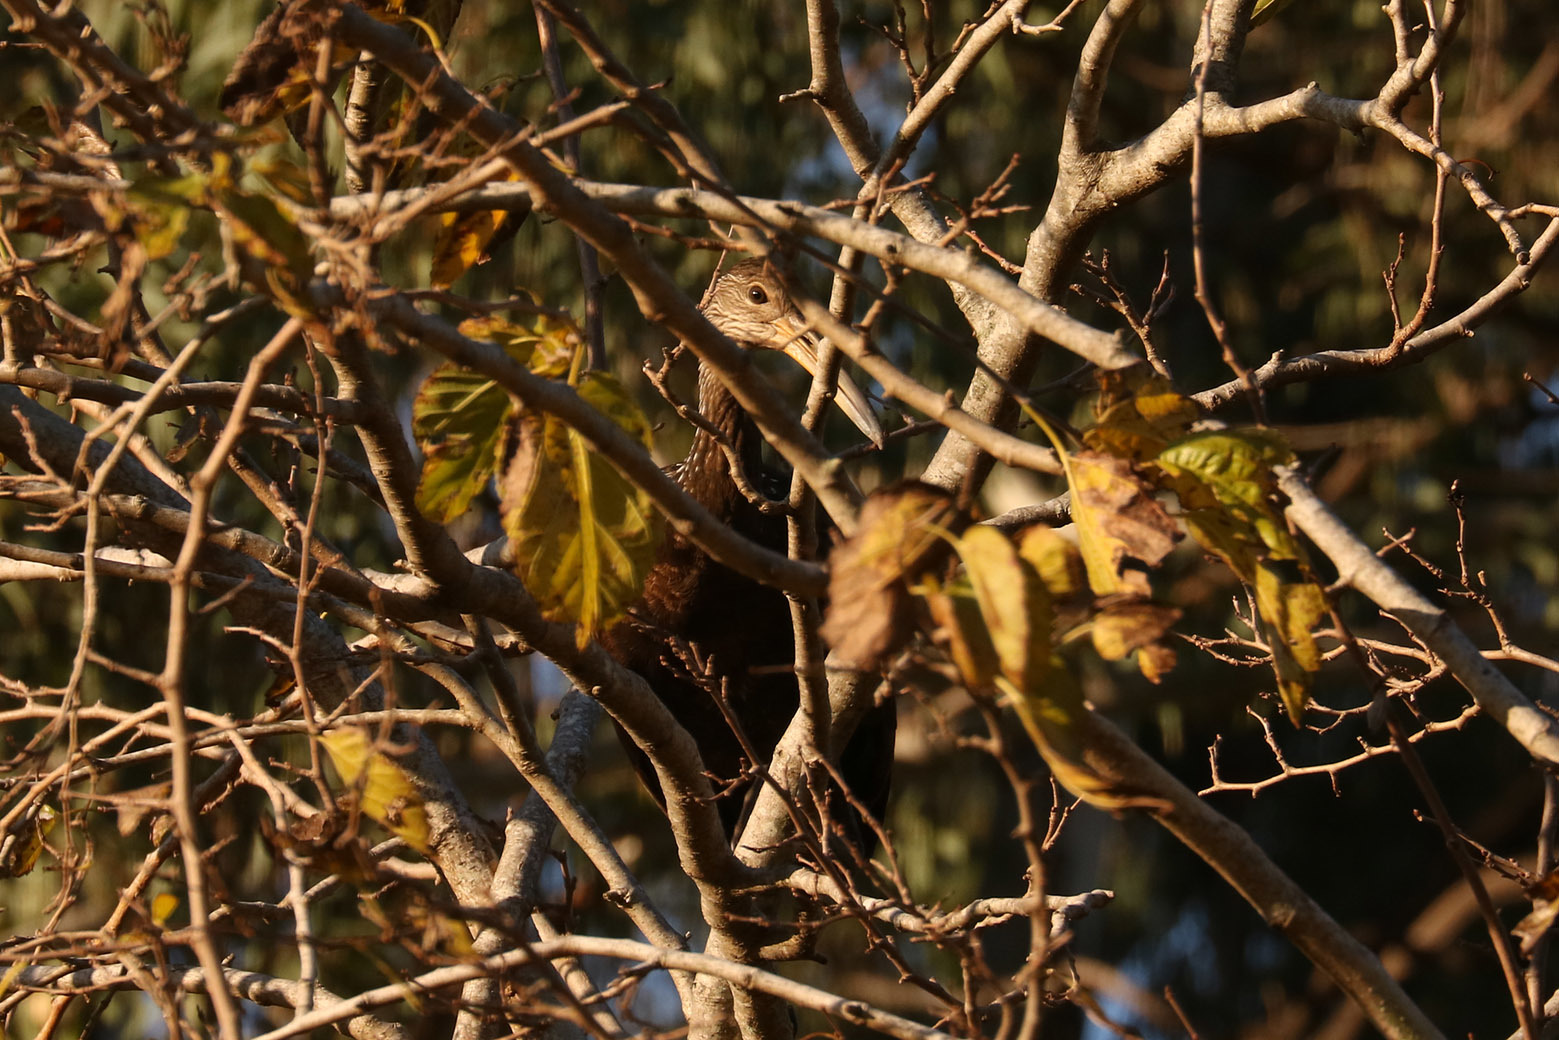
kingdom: Animalia
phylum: Chordata
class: Aves
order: Gruiformes
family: Aramidae
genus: Aramus
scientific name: Aramus guarauna
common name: Limpkin
